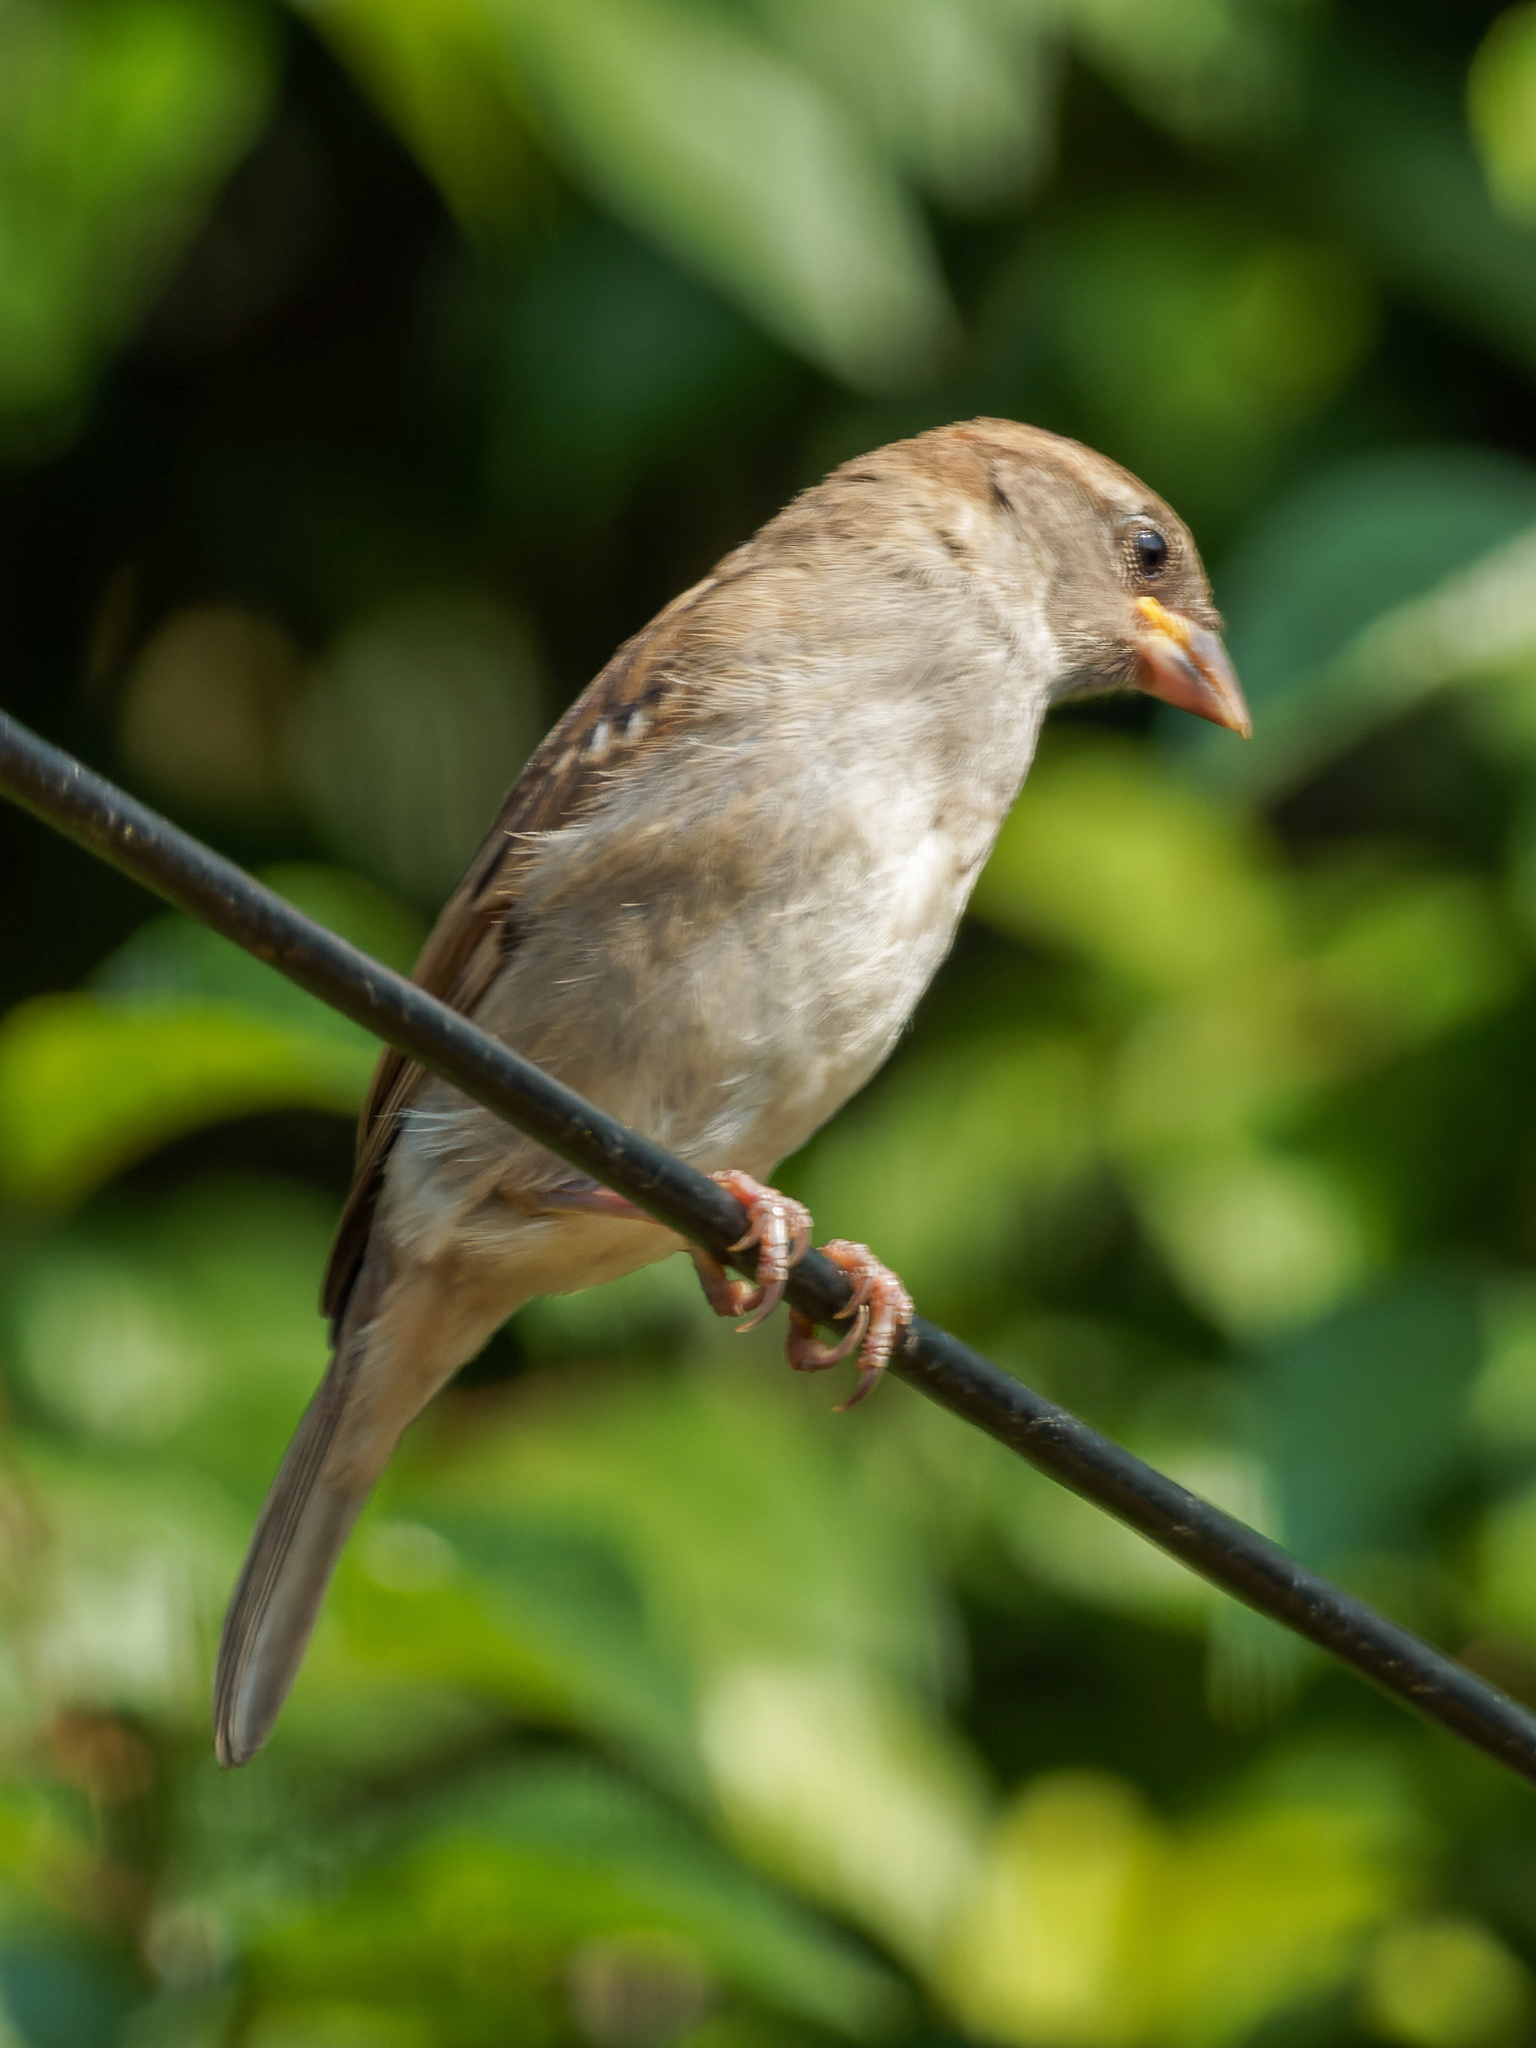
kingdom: Animalia
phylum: Chordata
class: Aves
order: Passeriformes
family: Passeridae
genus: Passer
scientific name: Passer domesticus
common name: House sparrow
